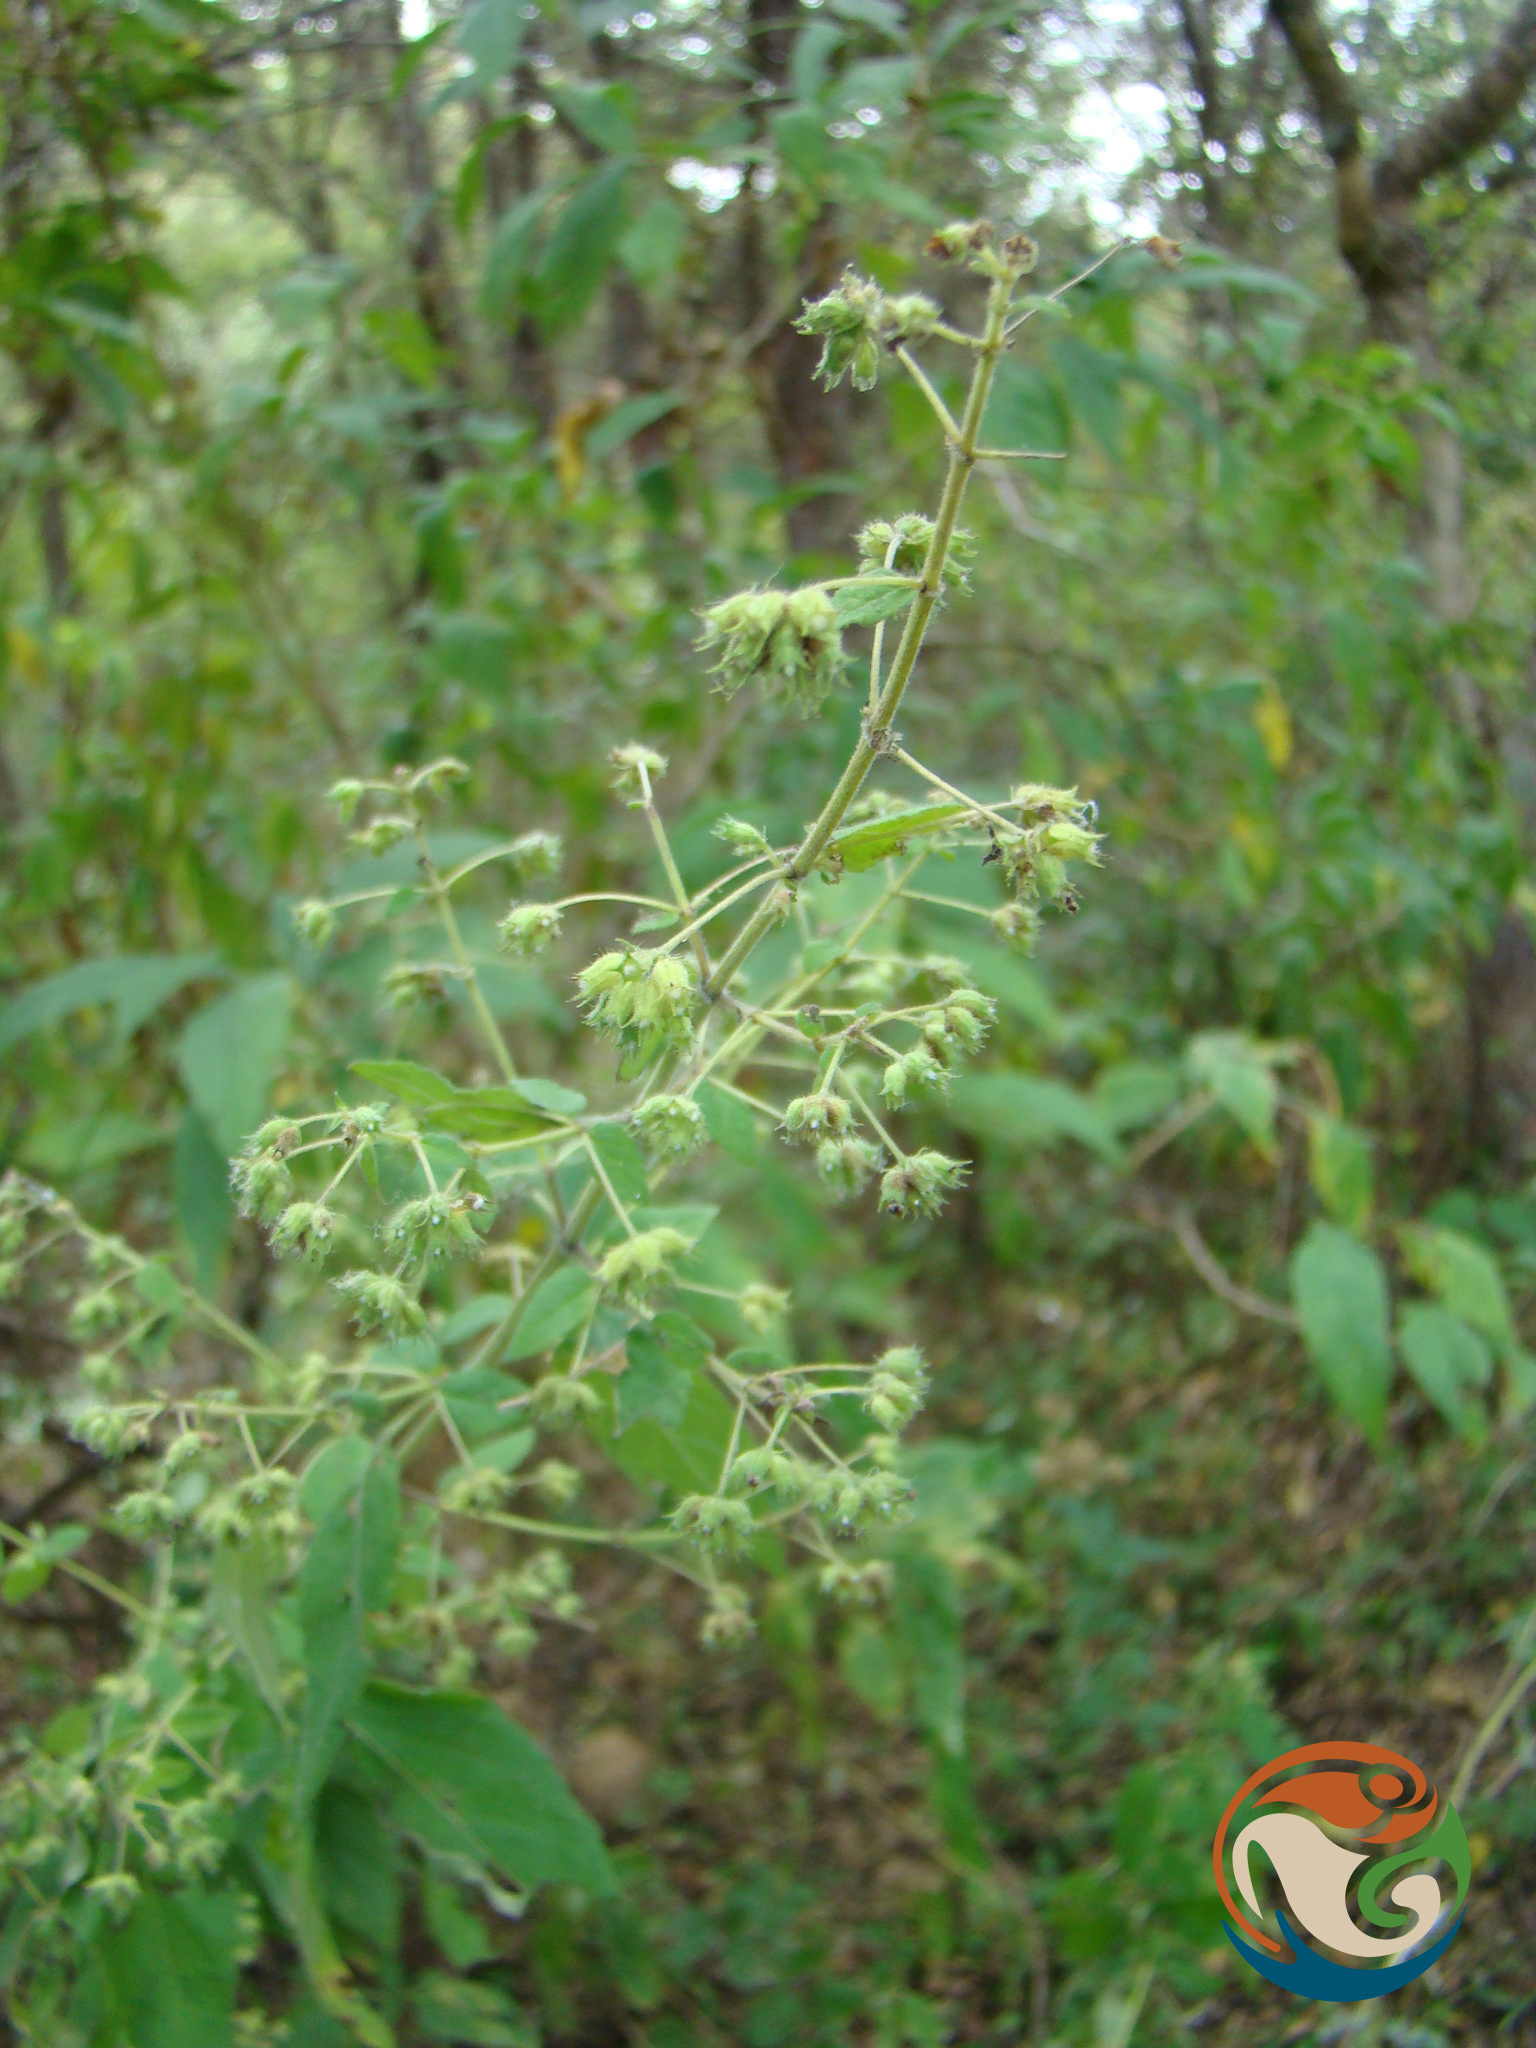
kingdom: Plantae
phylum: Tracheophyta
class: Magnoliopsida
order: Lamiales
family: Lamiaceae
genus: Mesosphaerum
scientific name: Mesosphaerum urticoides
